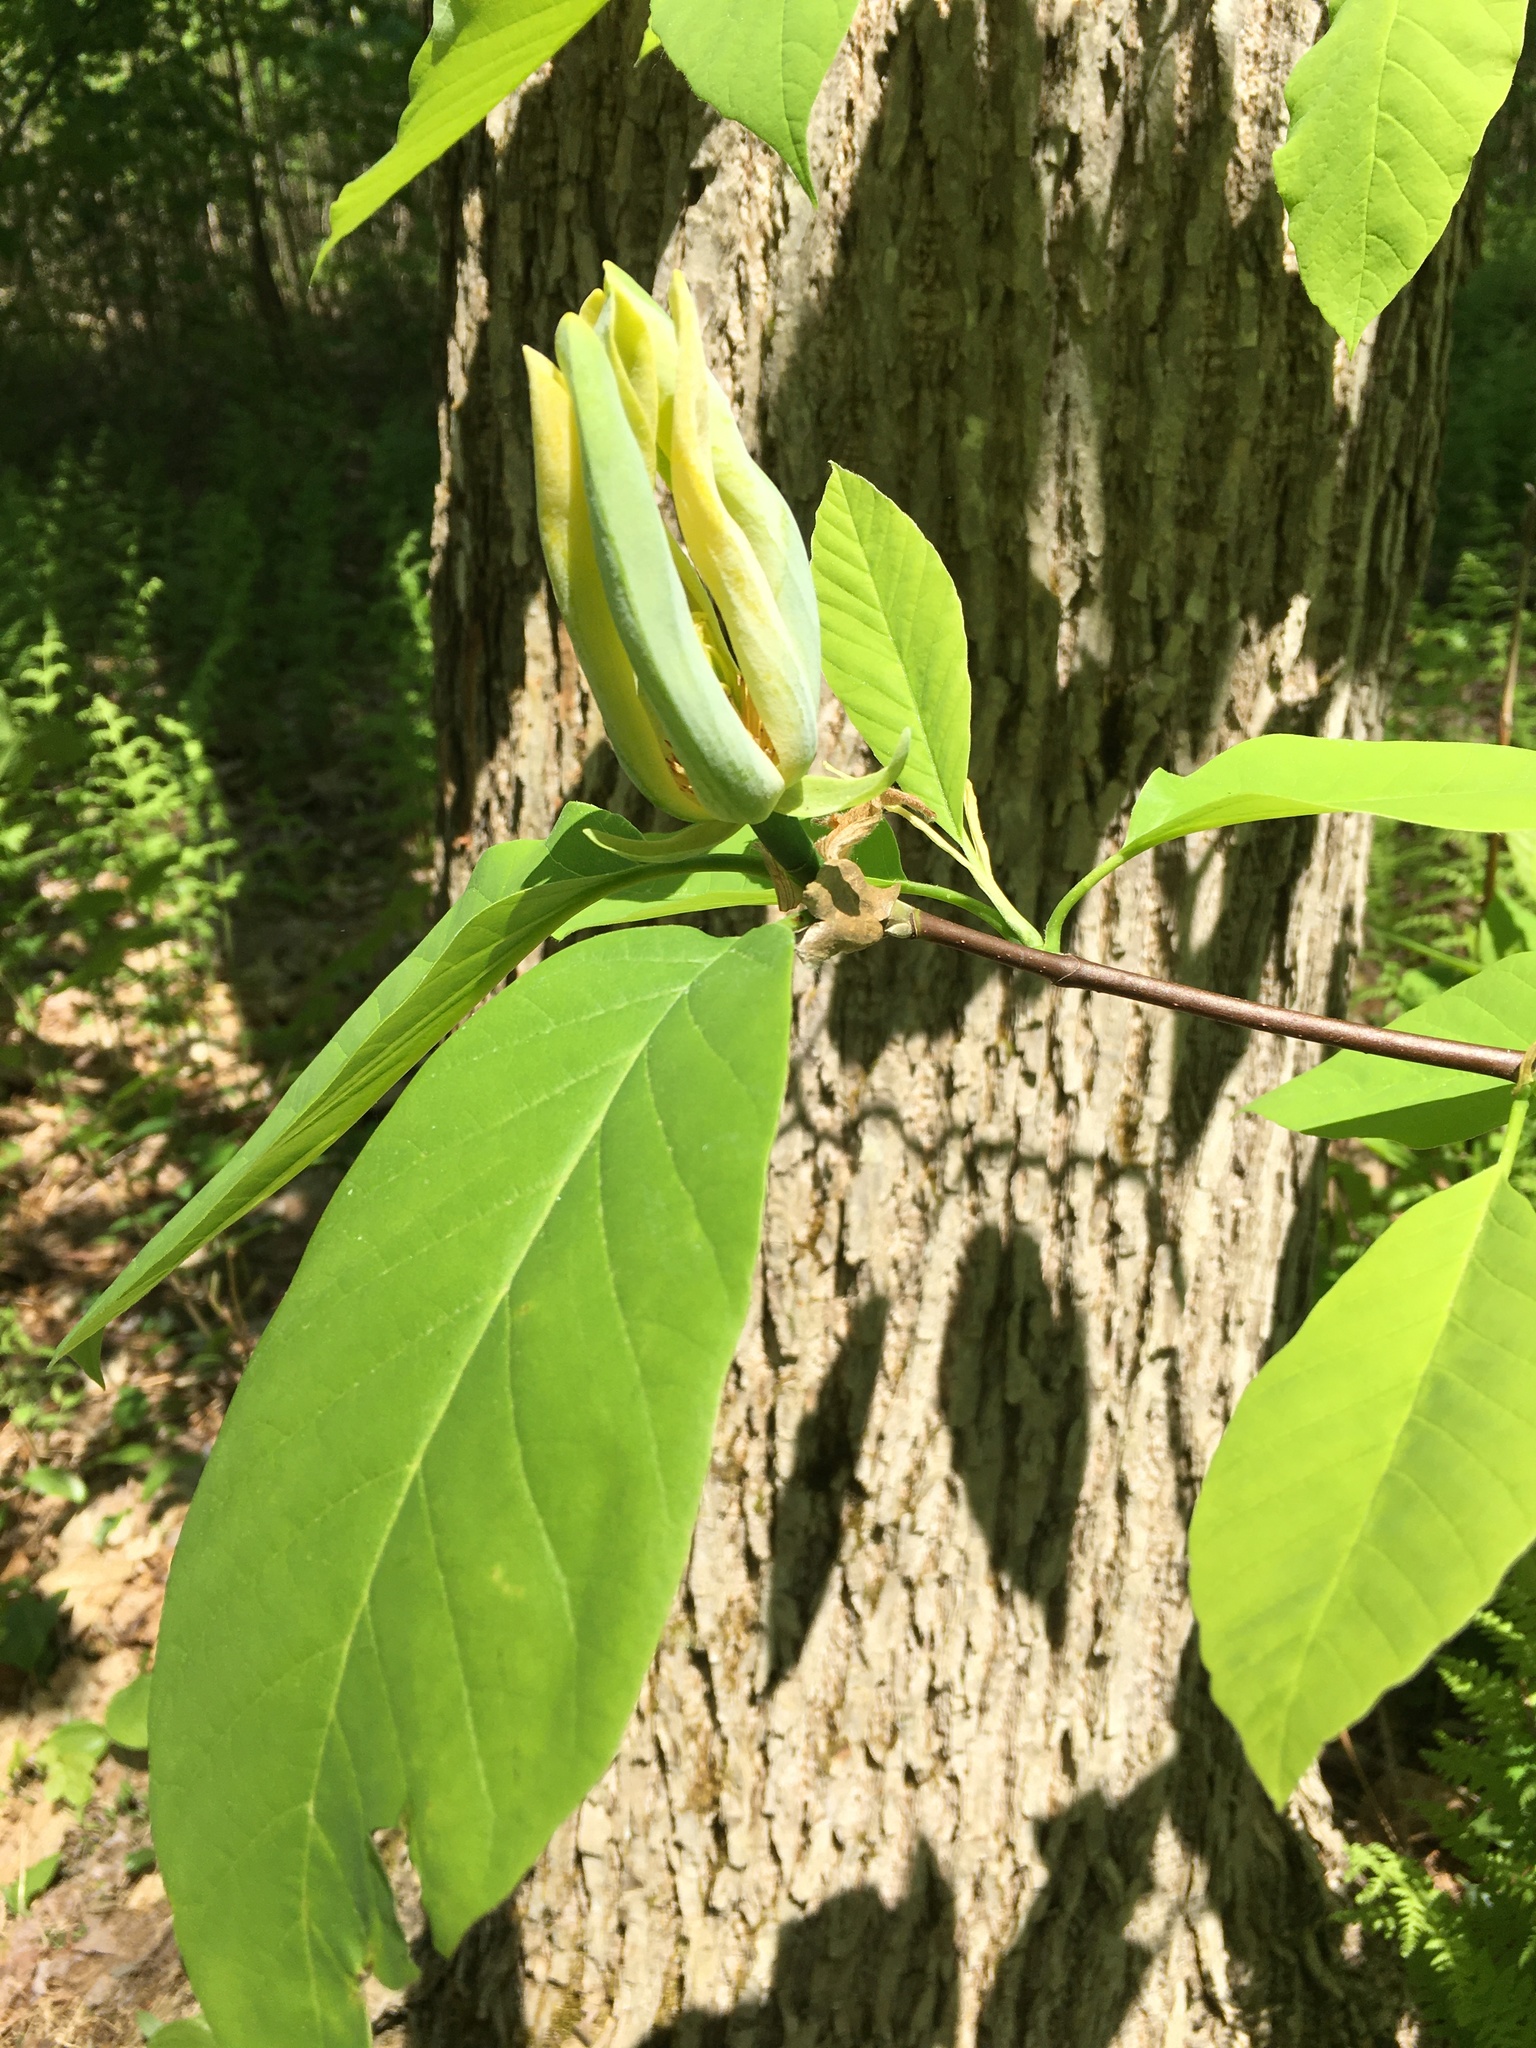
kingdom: Plantae
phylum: Tracheophyta
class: Magnoliopsida
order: Magnoliales
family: Magnoliaceae
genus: Magnolia
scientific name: Magnolia acuminata
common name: Cucumber magnolia
